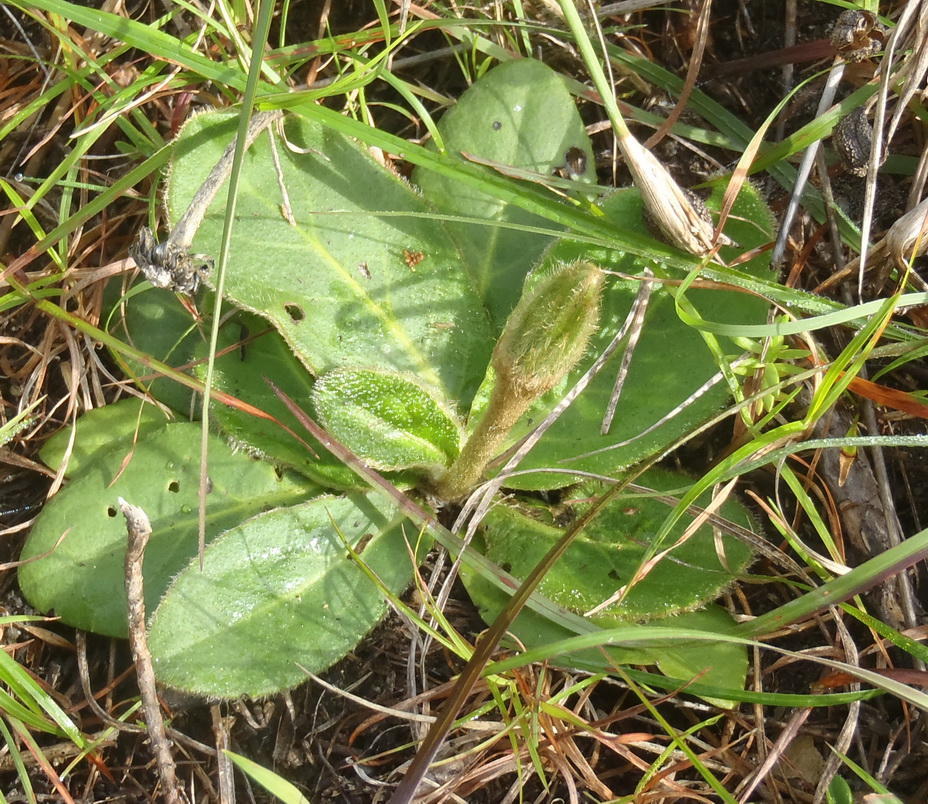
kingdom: Plantae
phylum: Tracheophyta
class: Magnoliopsida
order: Asterales
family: Asteraceae
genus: Piloselloides
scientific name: Piloselloides hirsuta
